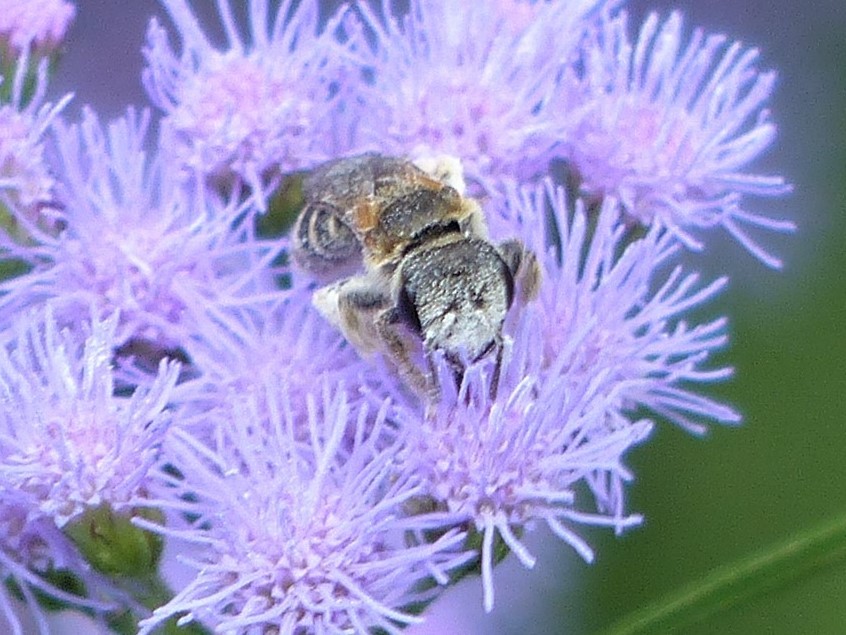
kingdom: Animalia
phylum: Arthropoda
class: Insecta
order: Hymenoptera
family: Halictidae
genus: Halictus
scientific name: Halictus ligatus
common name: Ligated furrow bee
